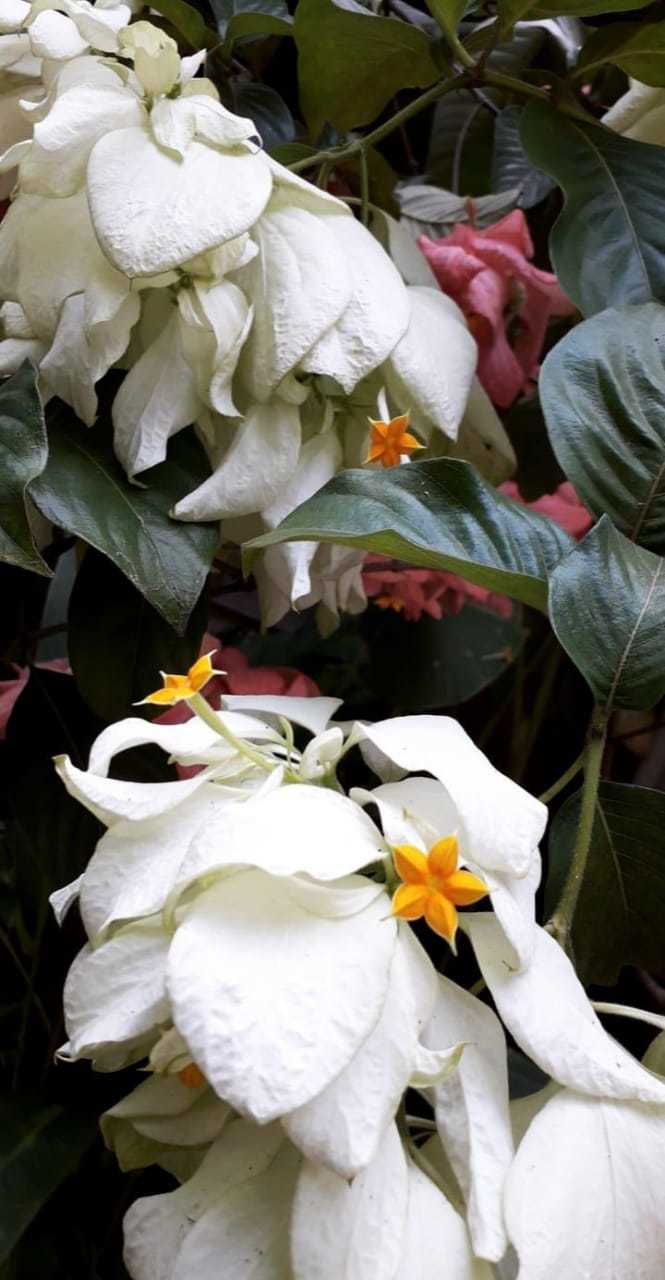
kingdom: Plantae
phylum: Tracheophyta
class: Magnoliopsida
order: Gentianales
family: Rubiaceae
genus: Mussaenda
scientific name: Mussaenda philippica
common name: Philippine mussaenda
